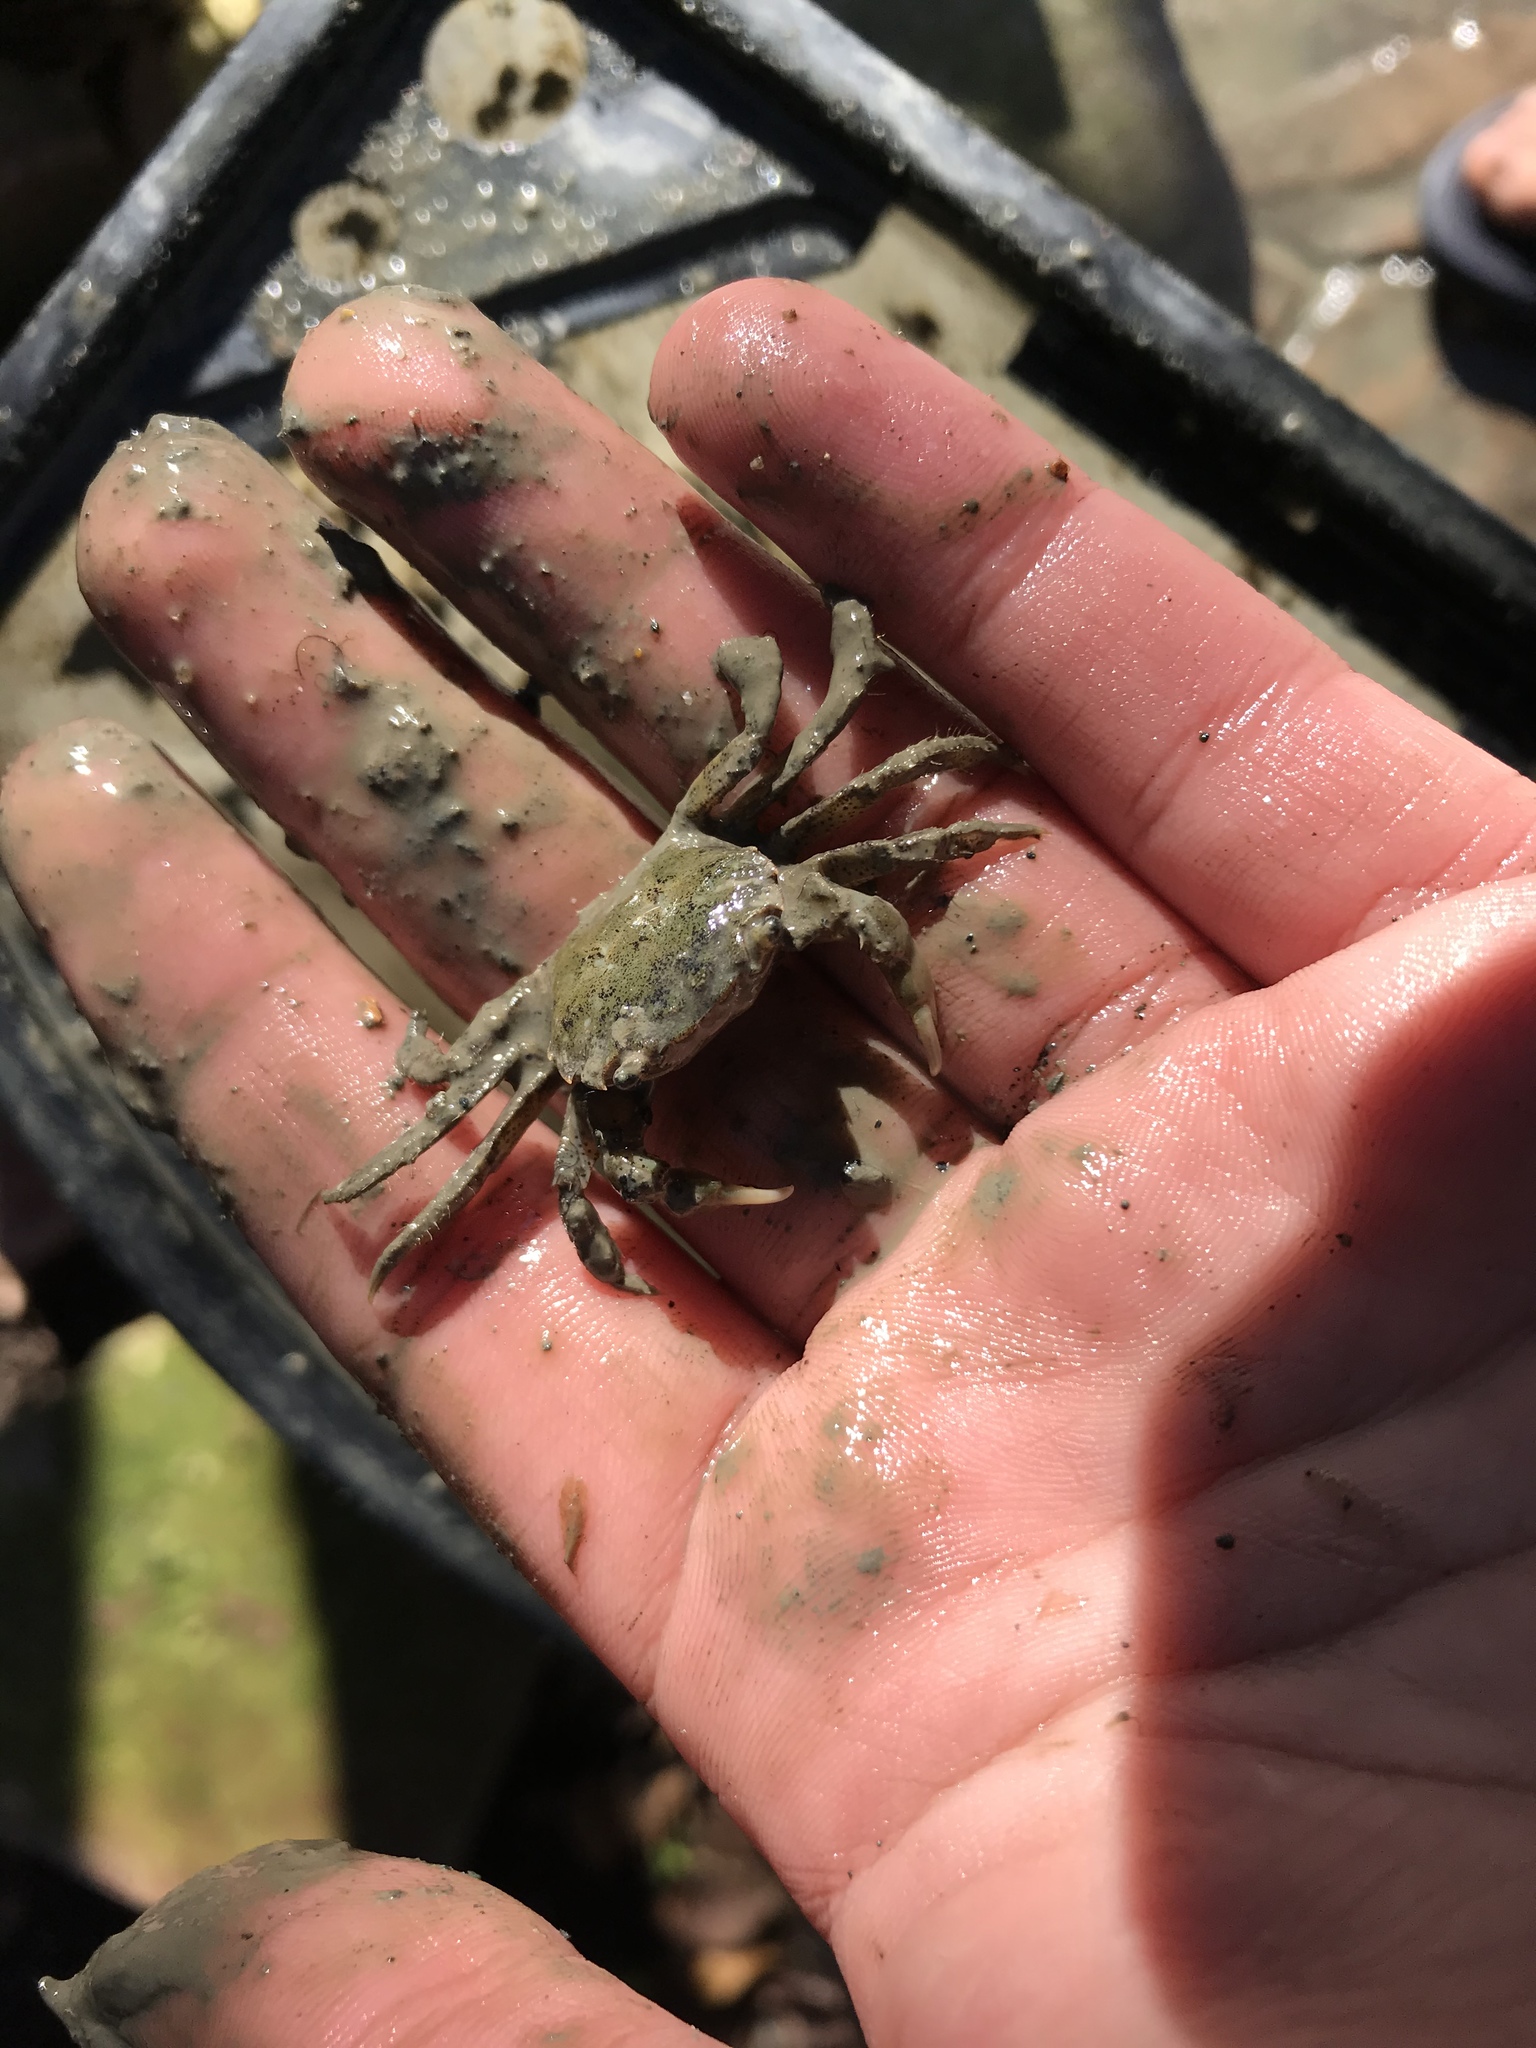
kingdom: Animalia
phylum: Arthropoda
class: Malacostraca
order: Decapoda
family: Varunidae
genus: Hemigrapsus
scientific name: Hemigrapsus oregonensis
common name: Yellow shore crab
